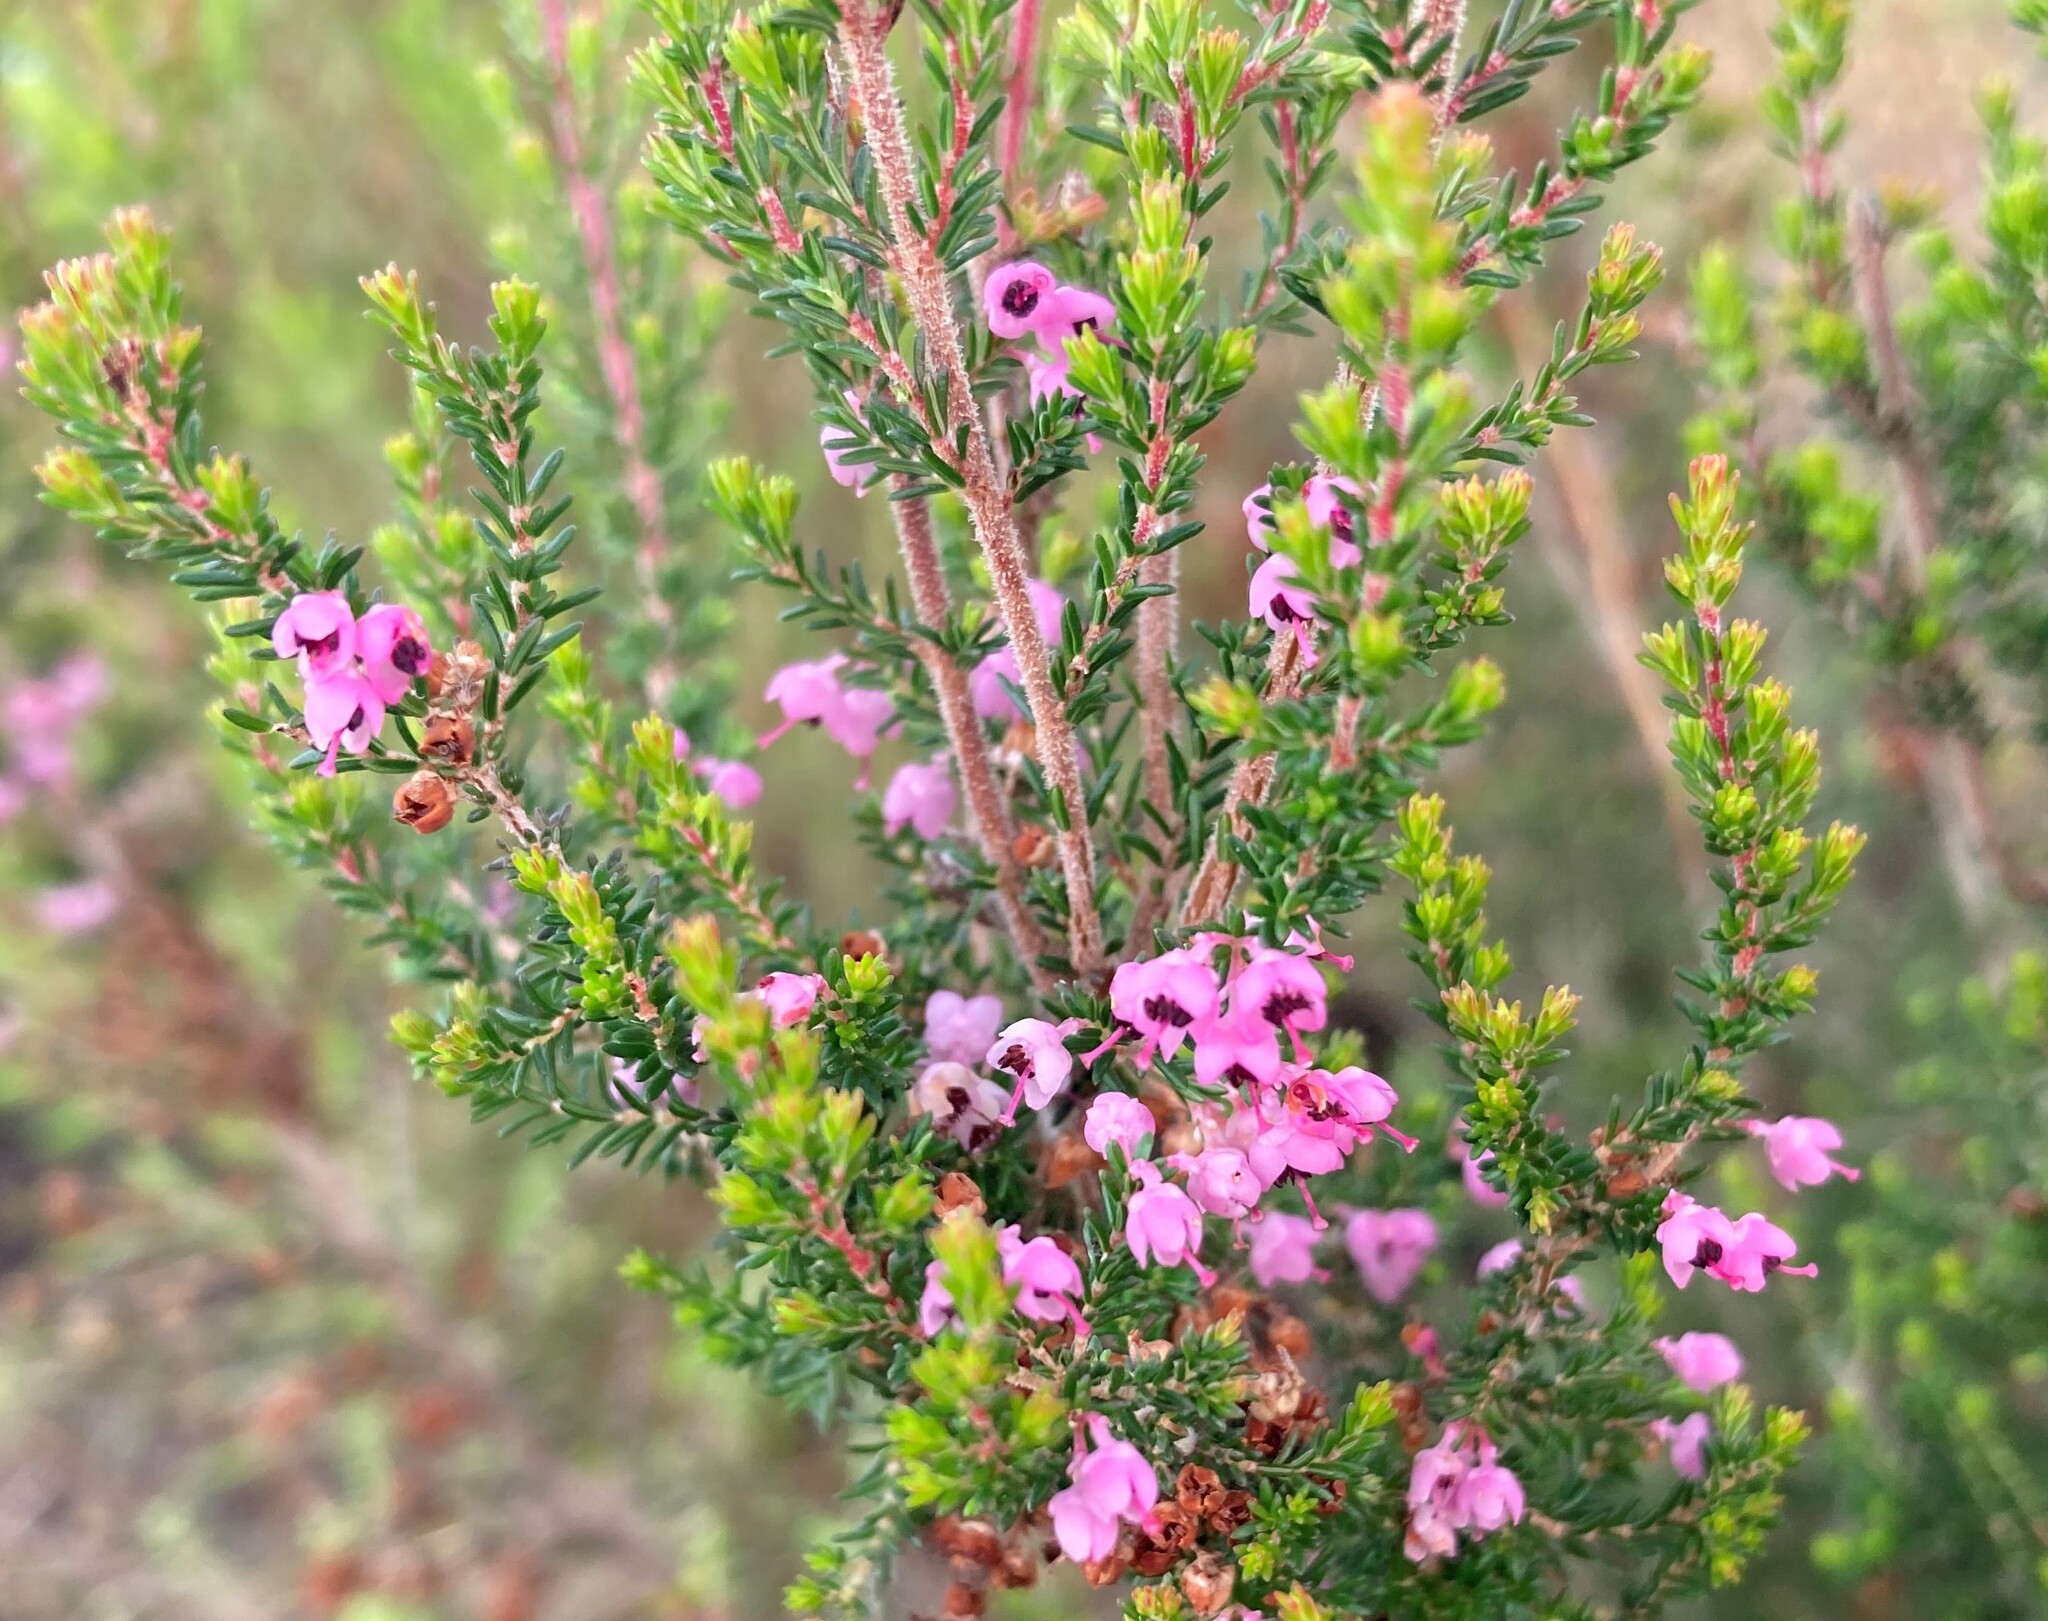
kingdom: Plantae
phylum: Tracheophyta
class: Magnoliopsida
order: Ericales
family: Ericaceae
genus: Erica
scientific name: Erica canaliculata
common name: Hairy grey heather
